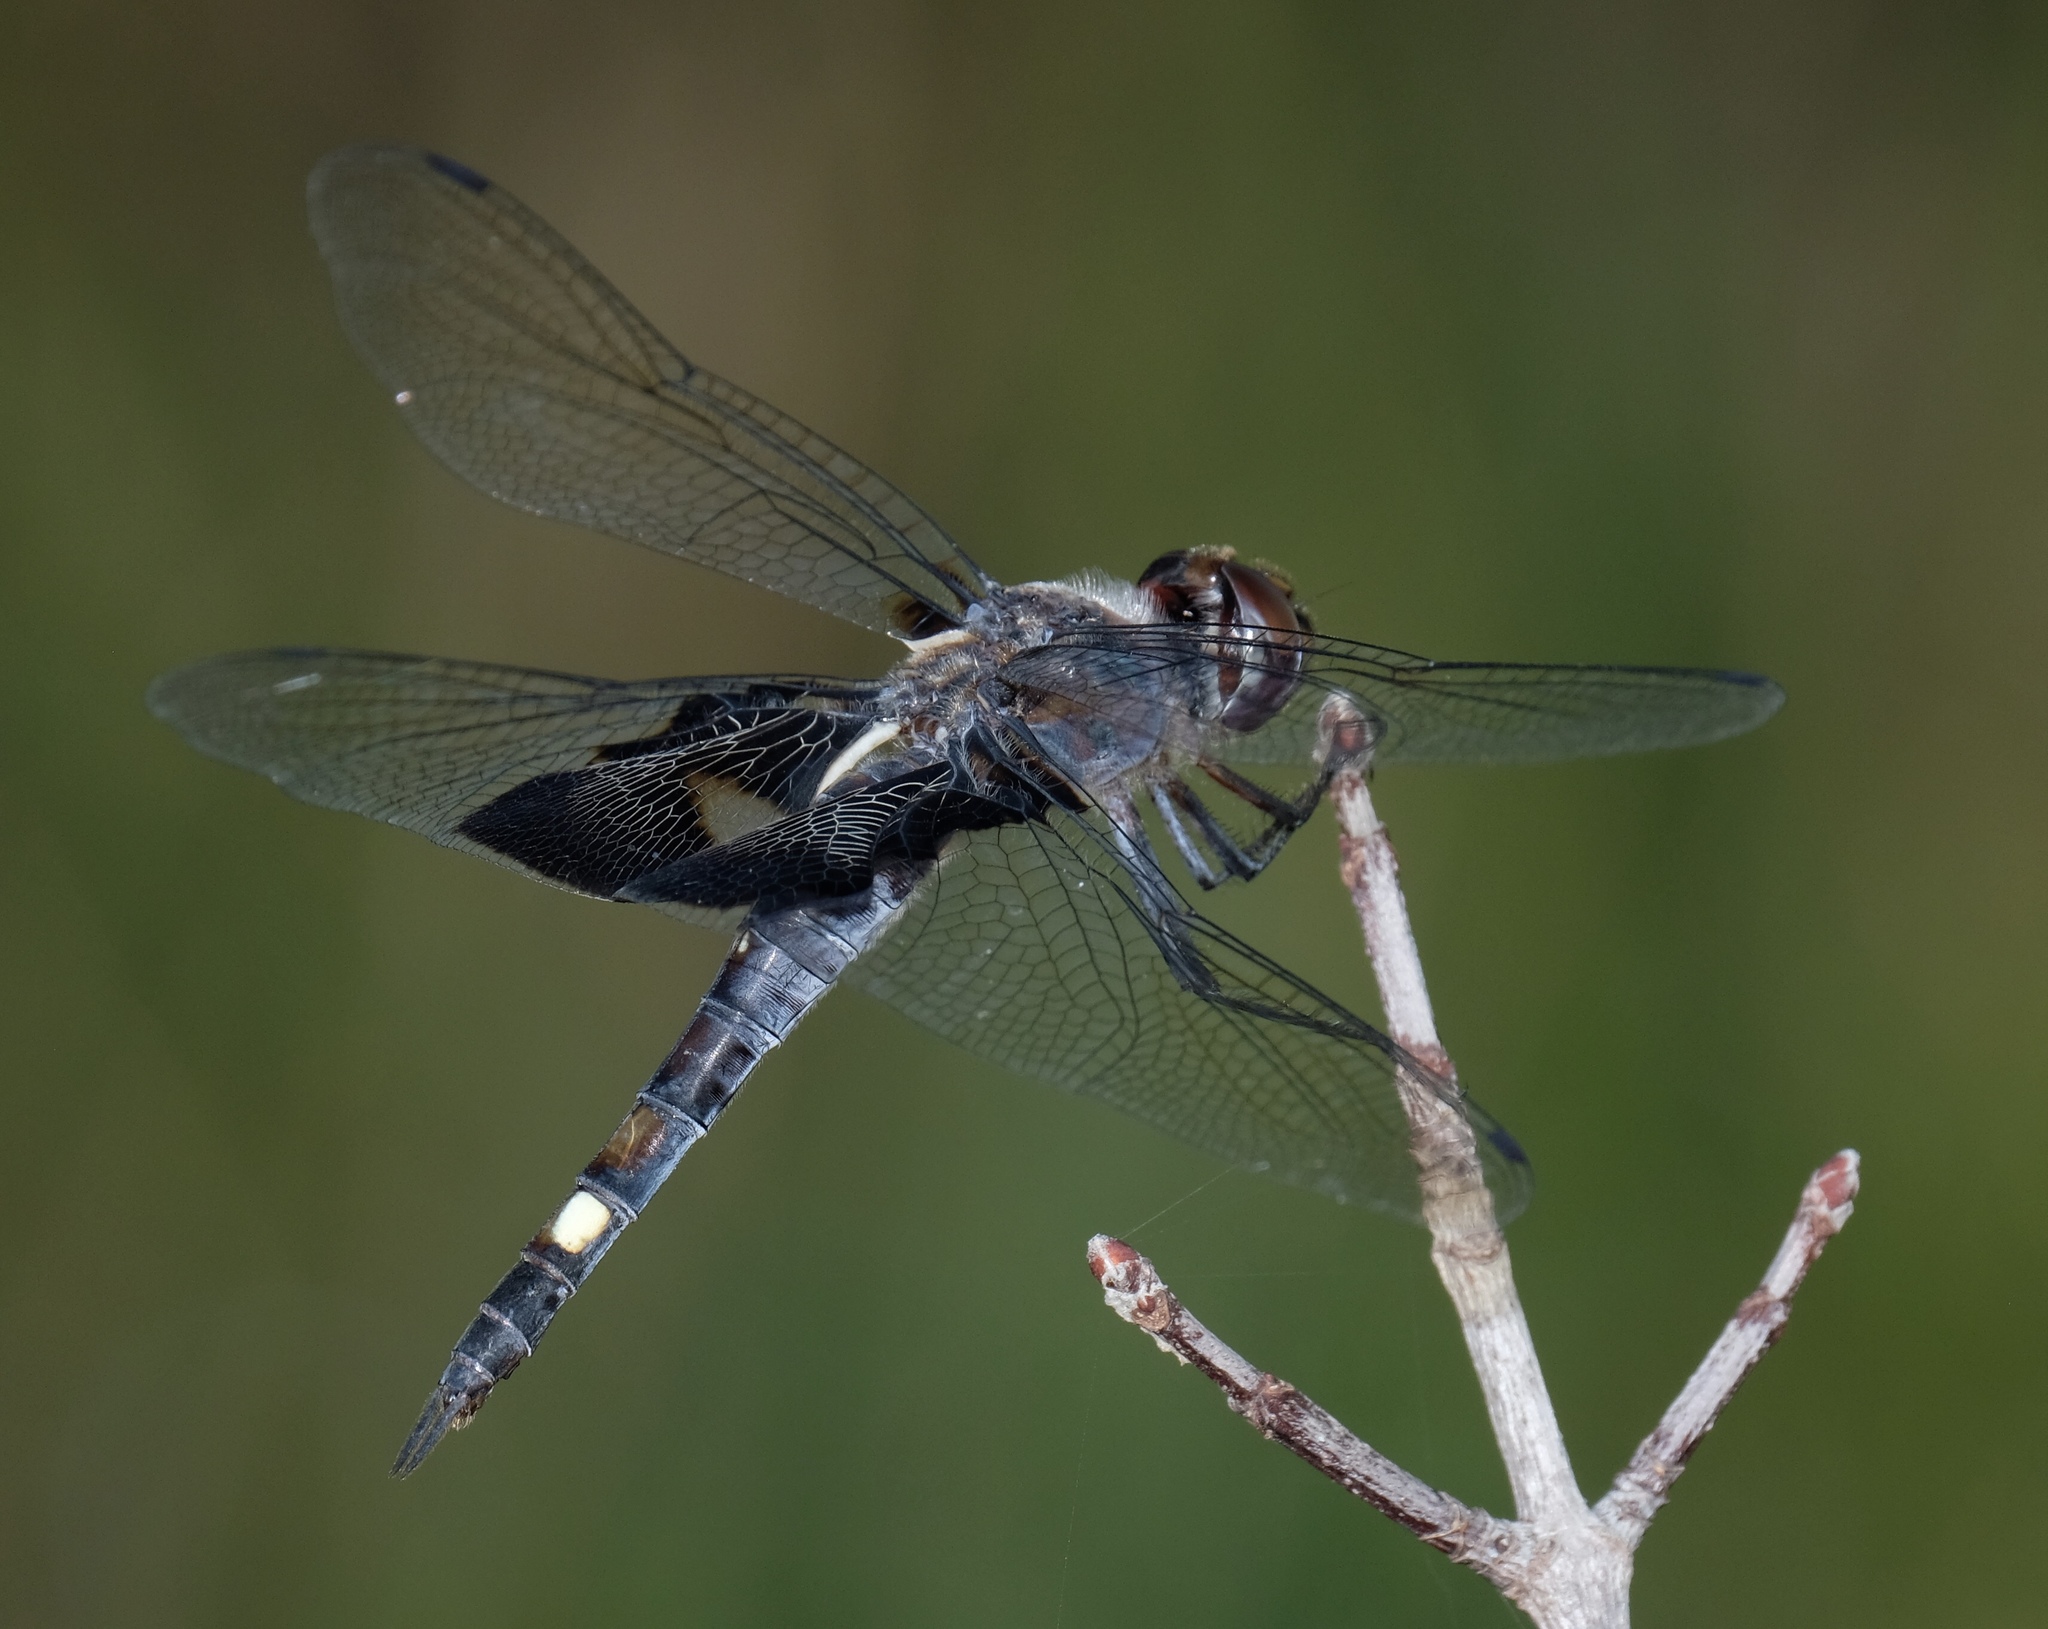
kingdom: Animalia
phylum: Arthropoda
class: Insecta
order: Odonata
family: Libellulidae
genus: Tramea
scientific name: Tramea lacerata
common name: Black saddlebags
